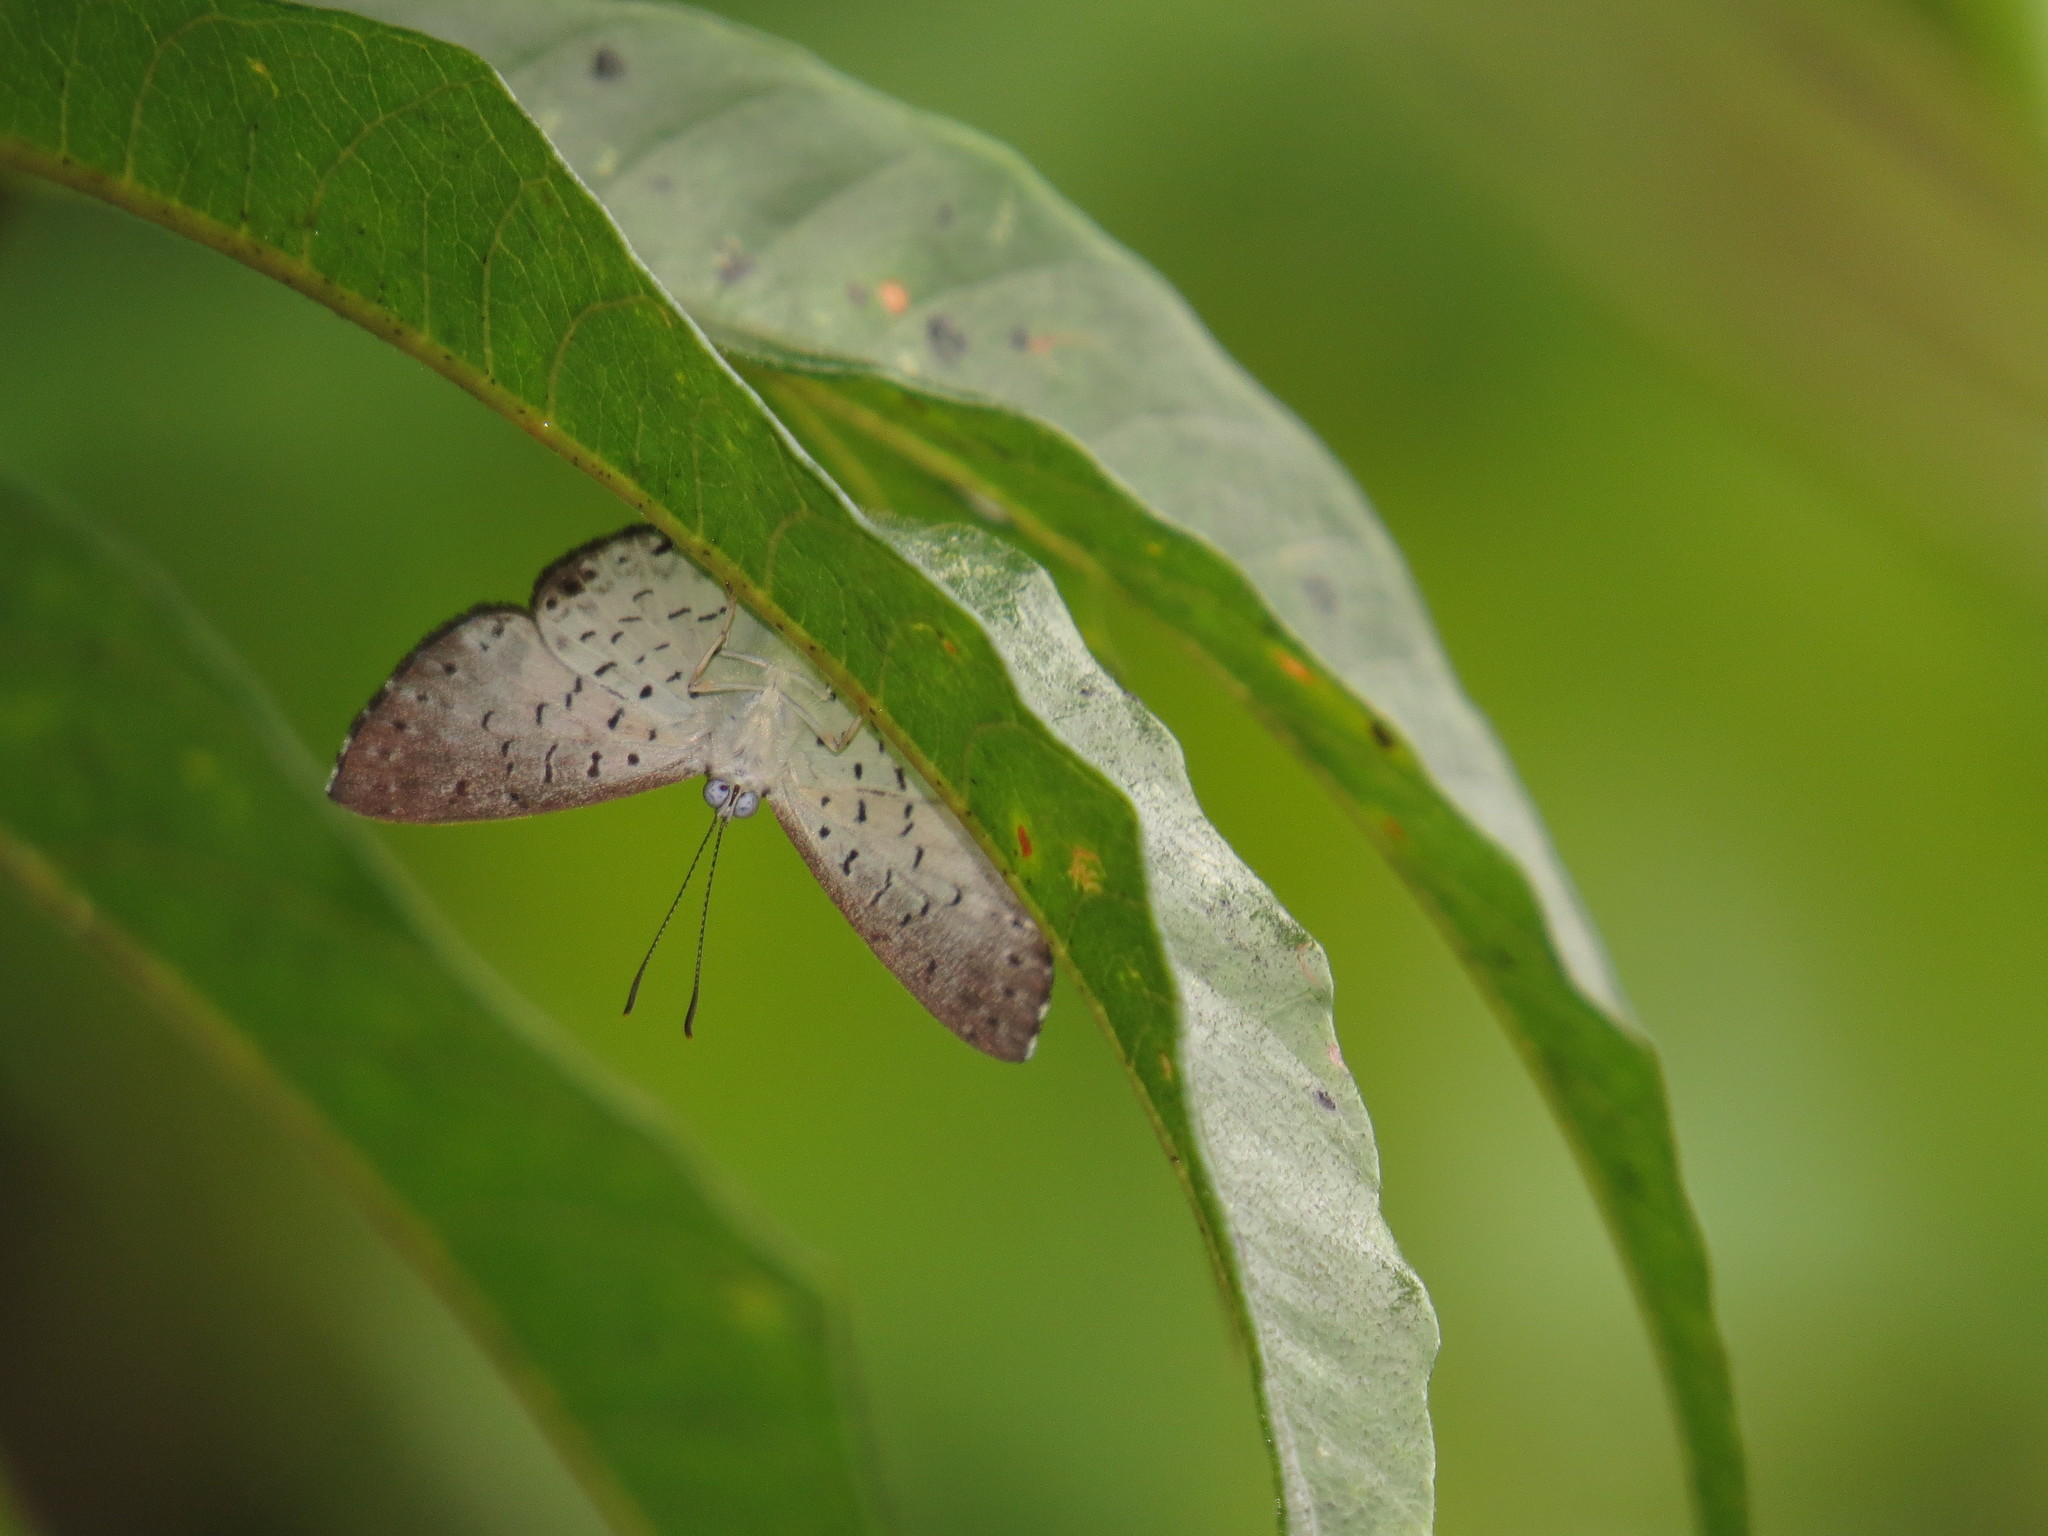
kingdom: Animalia
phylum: Arthropoda
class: Insecta
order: Lepidoptera
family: Riodinidae
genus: Polystichtis
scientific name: Polystichtis lucianus
